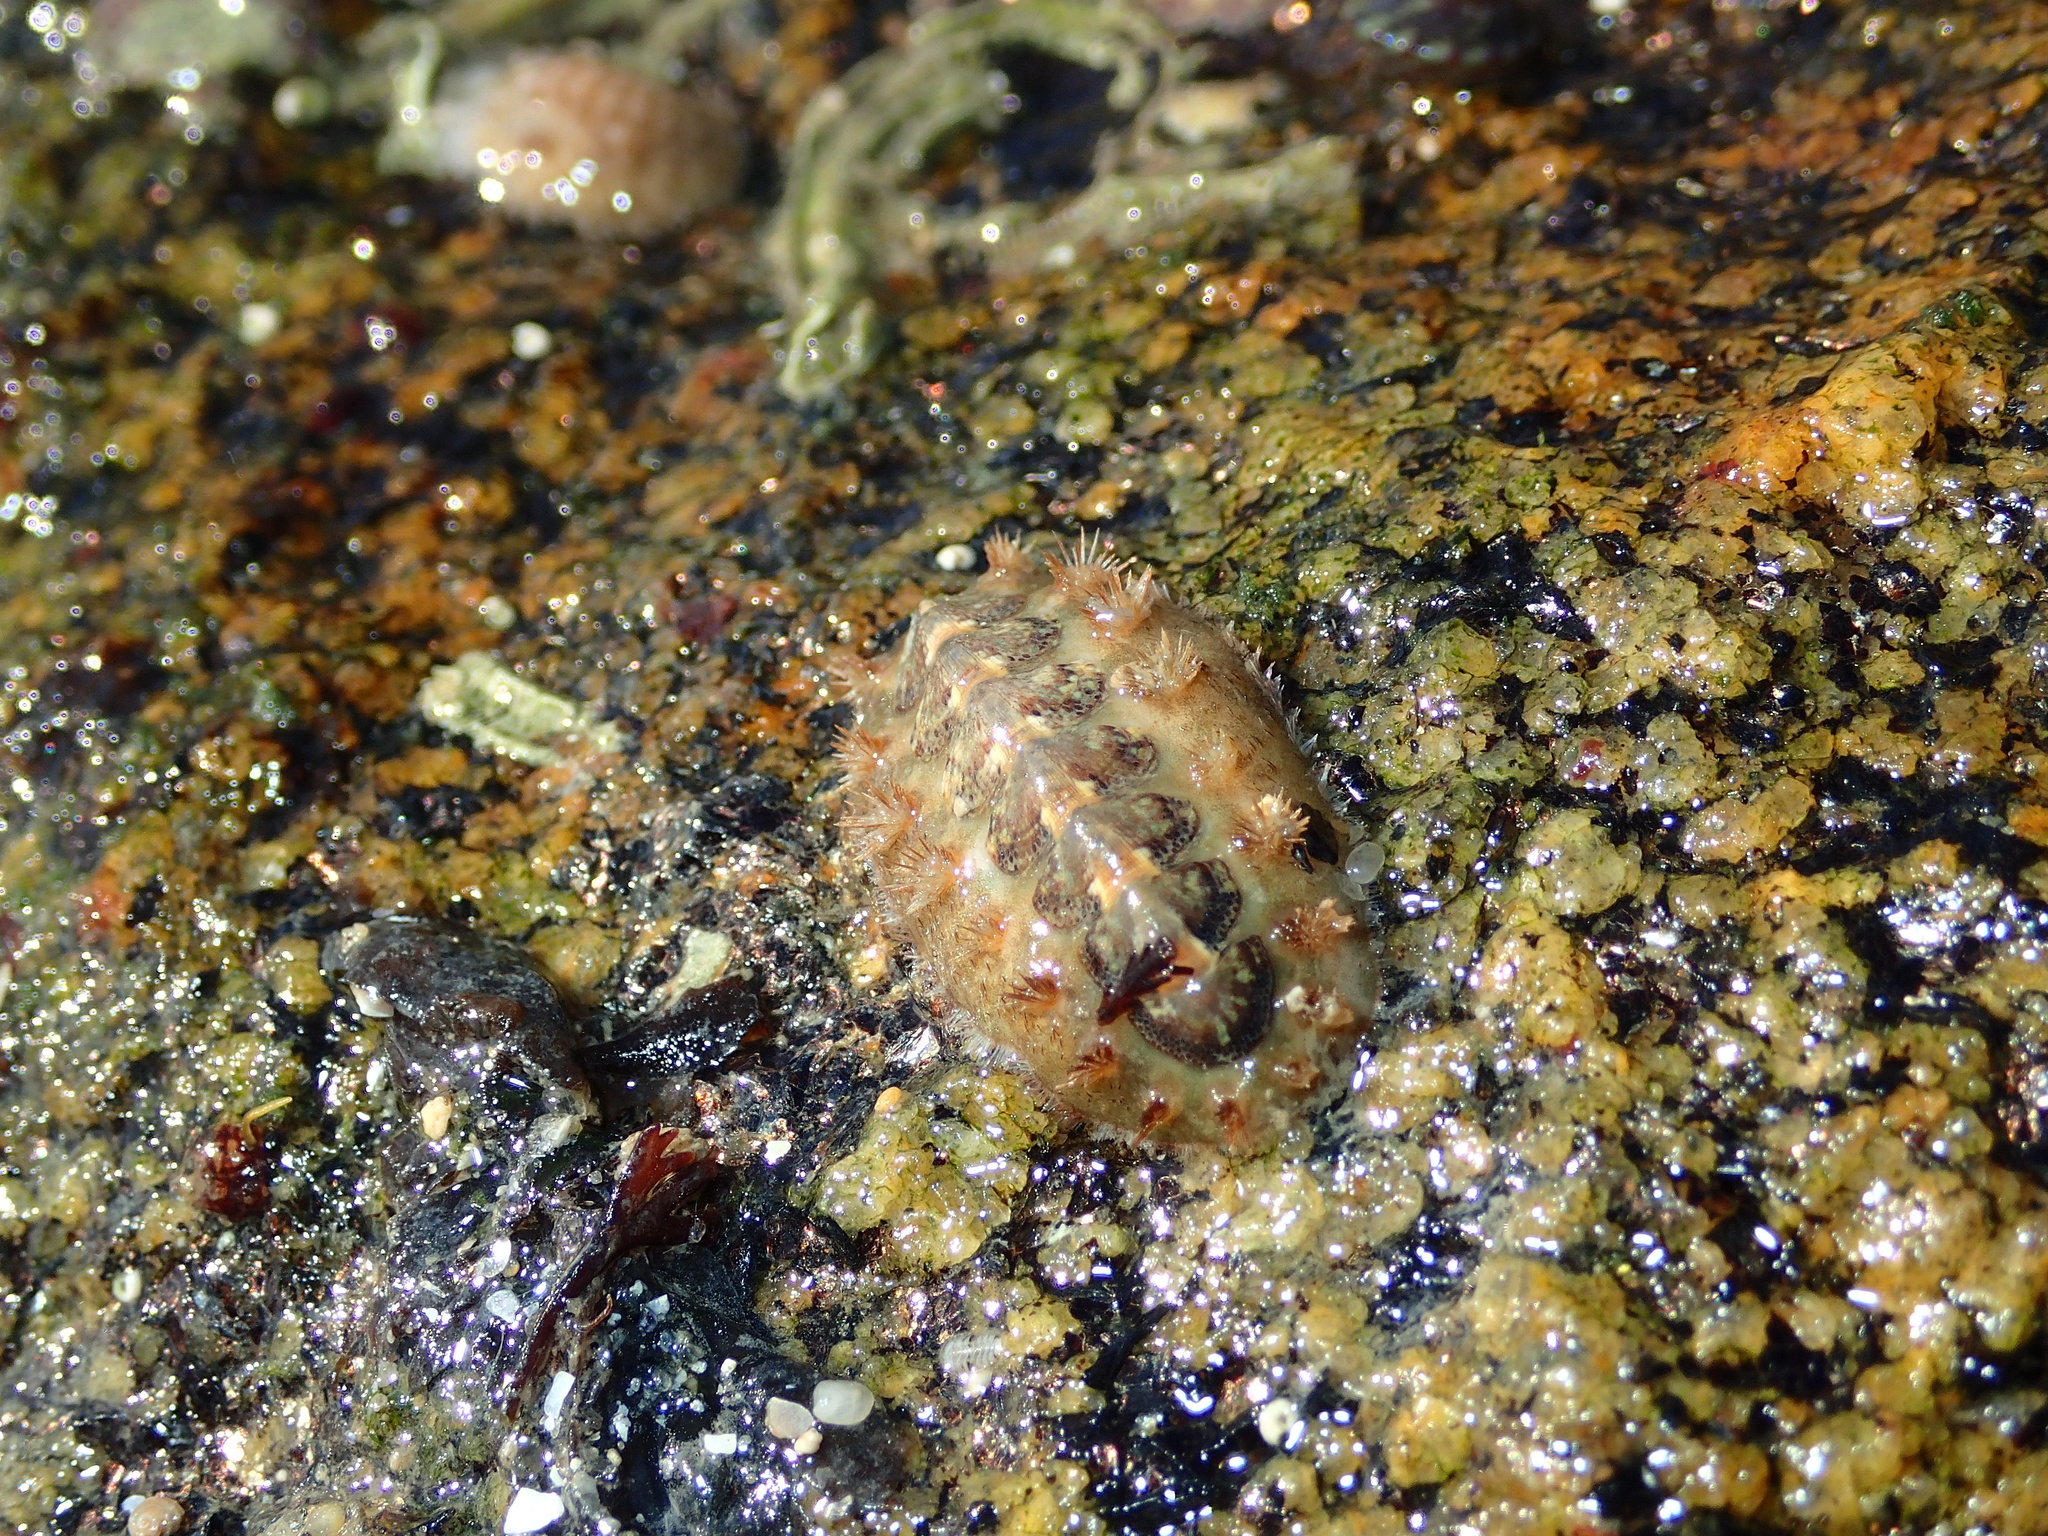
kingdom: Animalia
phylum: Mollusca
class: Polyplacophora
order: Chitonida
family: Acanthochitonidae
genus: Acanthochitona
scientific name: Acanthochitona crinita
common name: Bristly mail chiton
